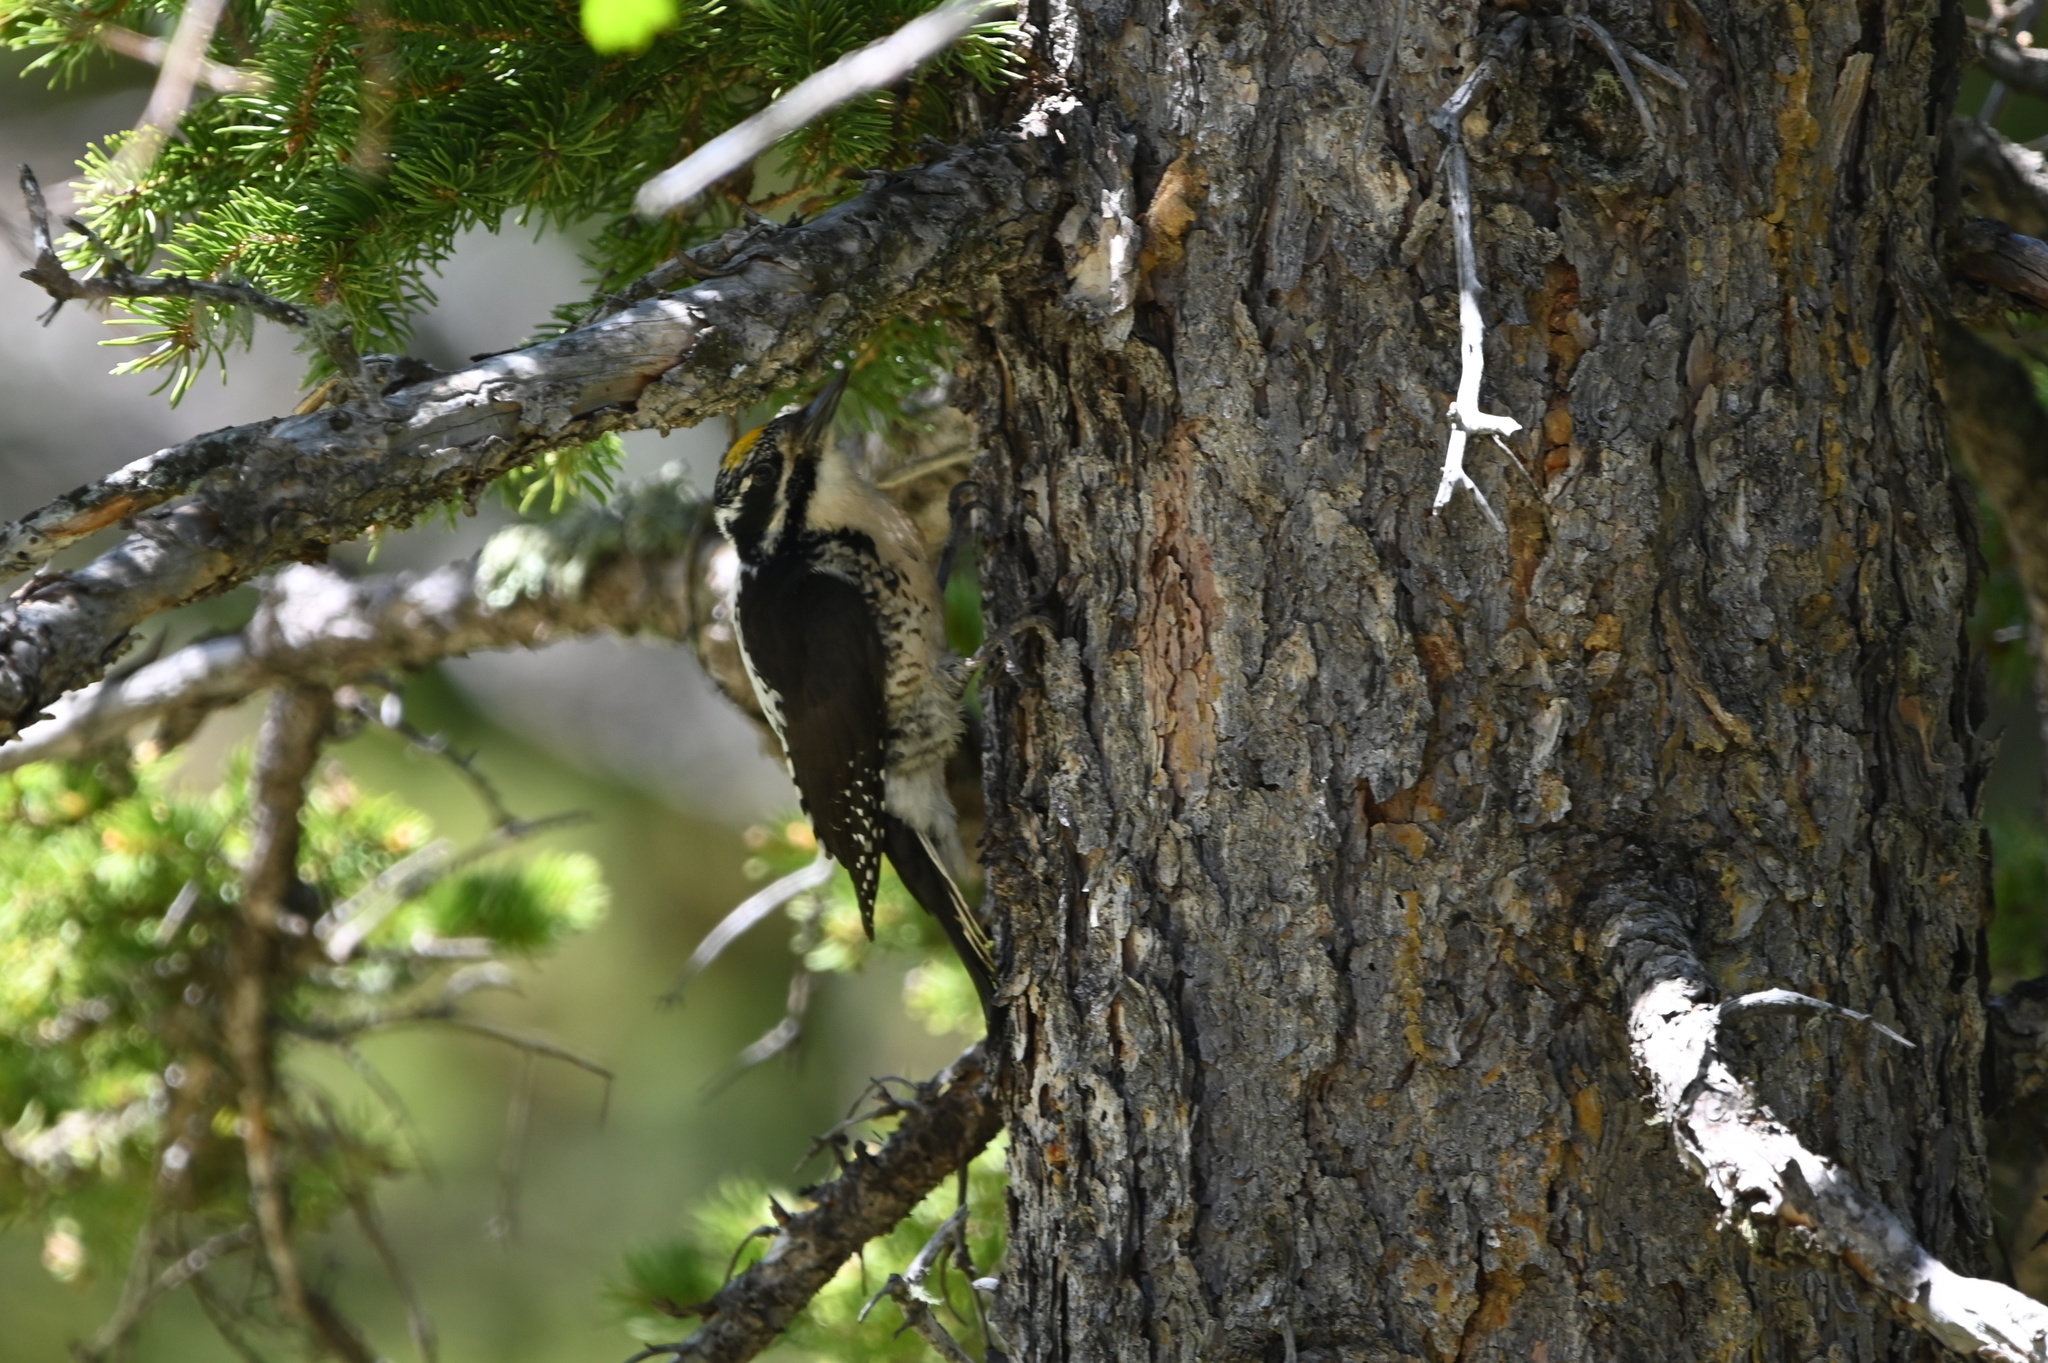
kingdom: Animalia
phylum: Chordata
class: Aves
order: Piciformes
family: Picidae
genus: Picoides
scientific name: Picoides dorsalis
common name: American three-toed woodpecker
